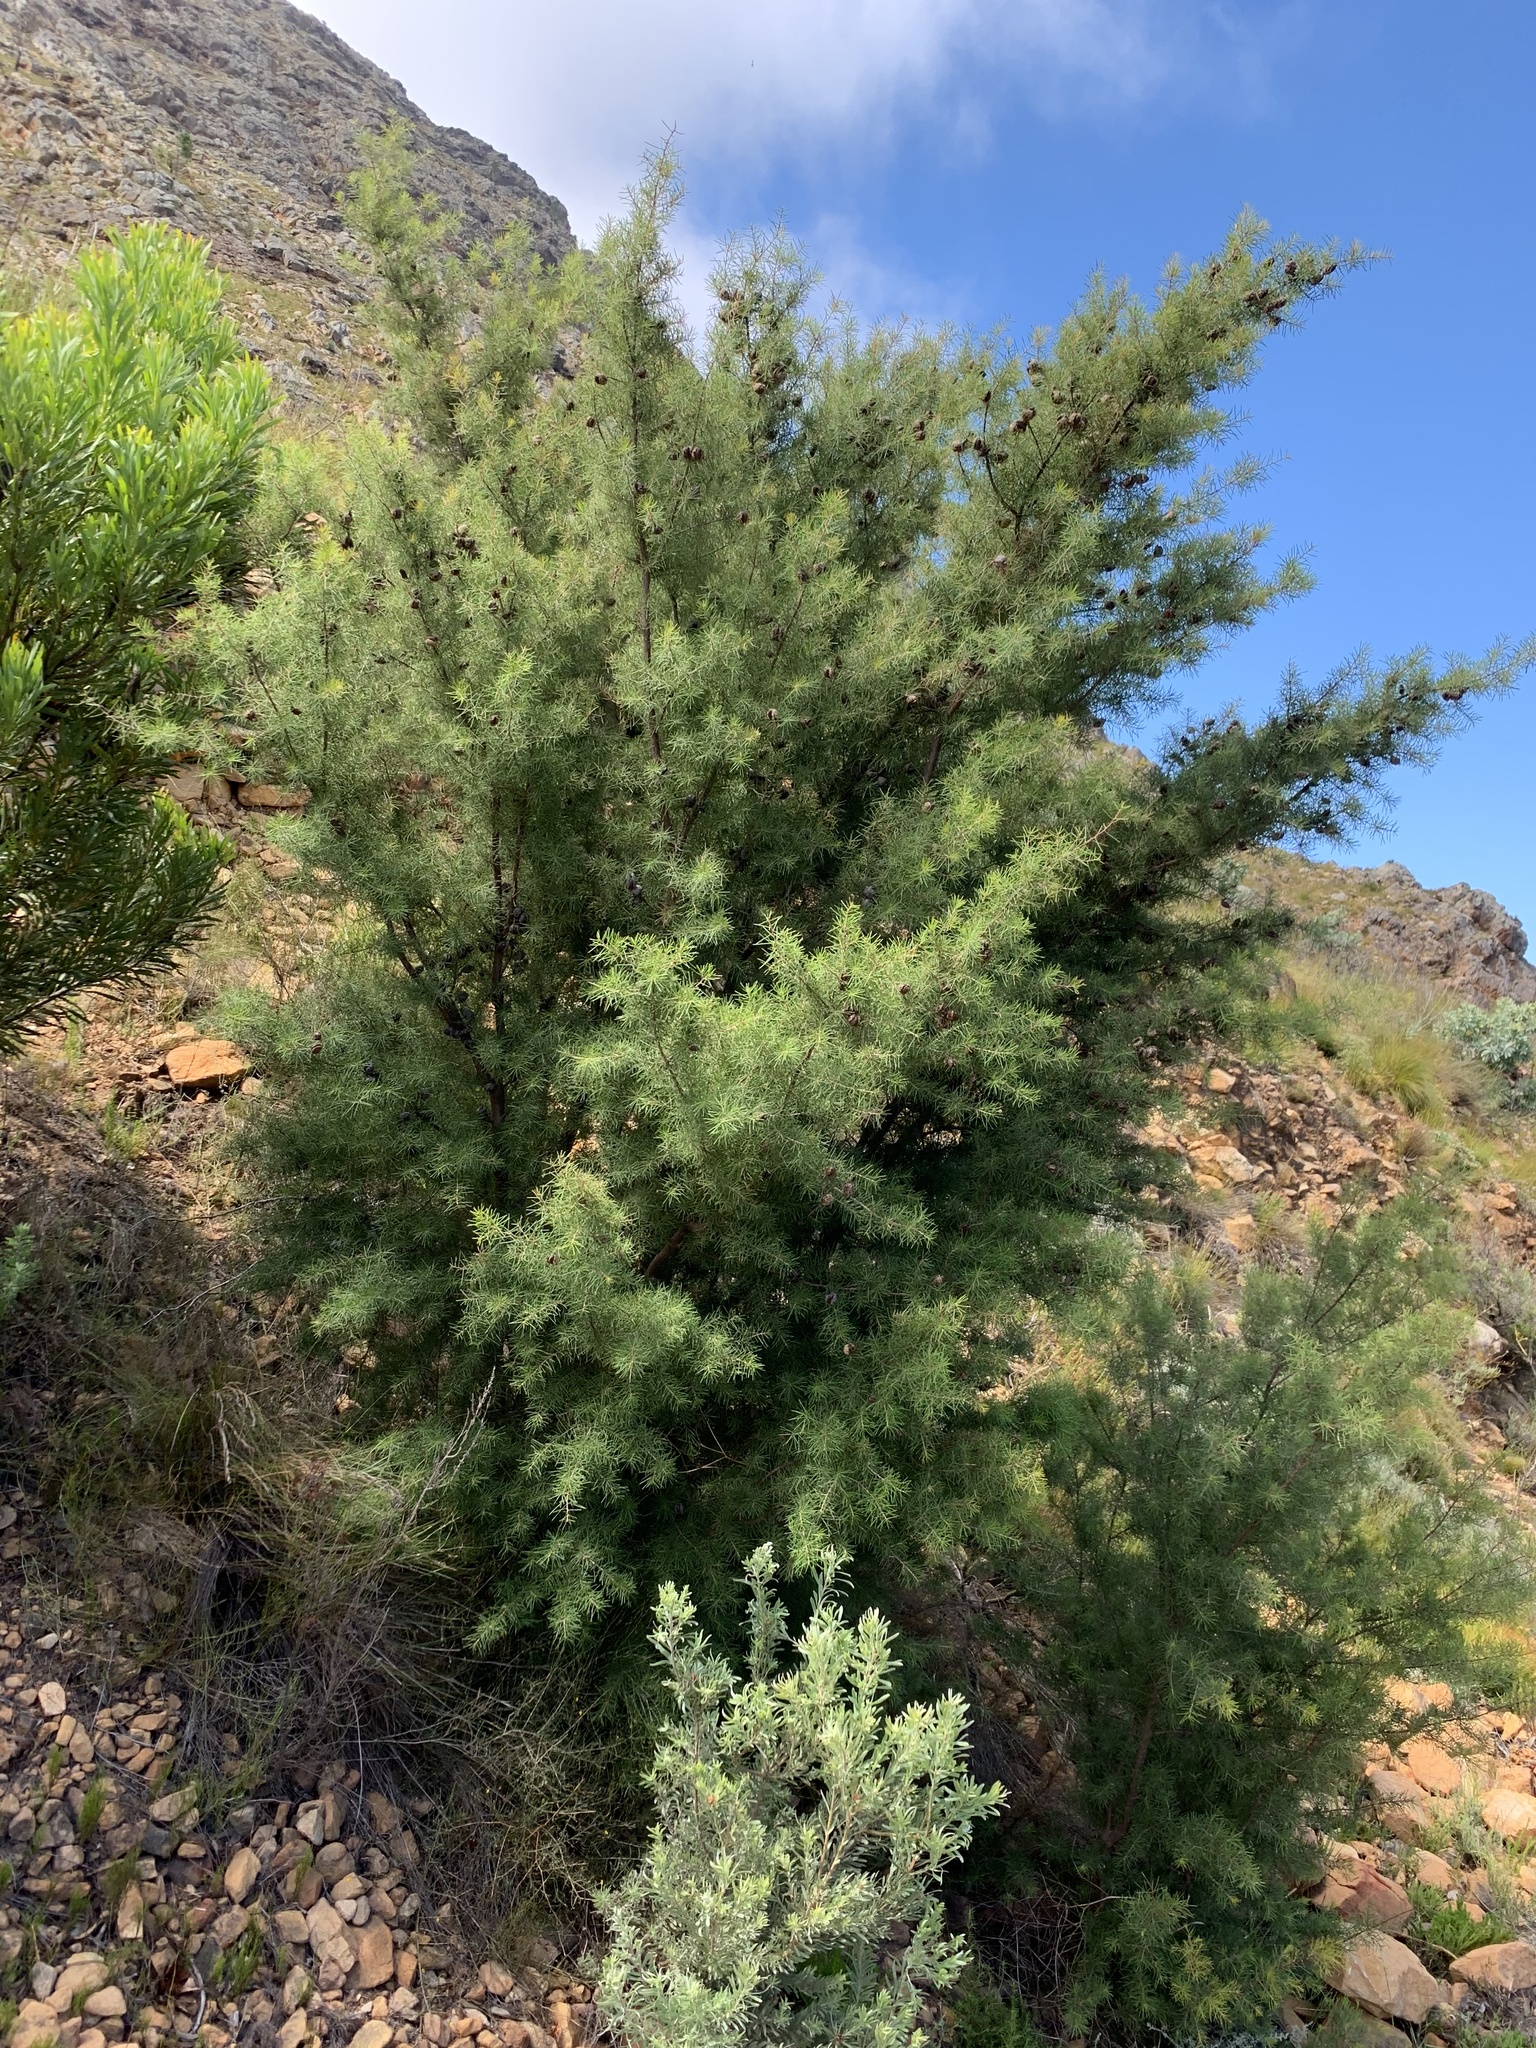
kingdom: Plantae
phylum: Tracheophyta
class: Magnoliopsida
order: Proteales
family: Proteaceae
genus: Hakea
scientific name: Hakea sericea
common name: Needle bush
